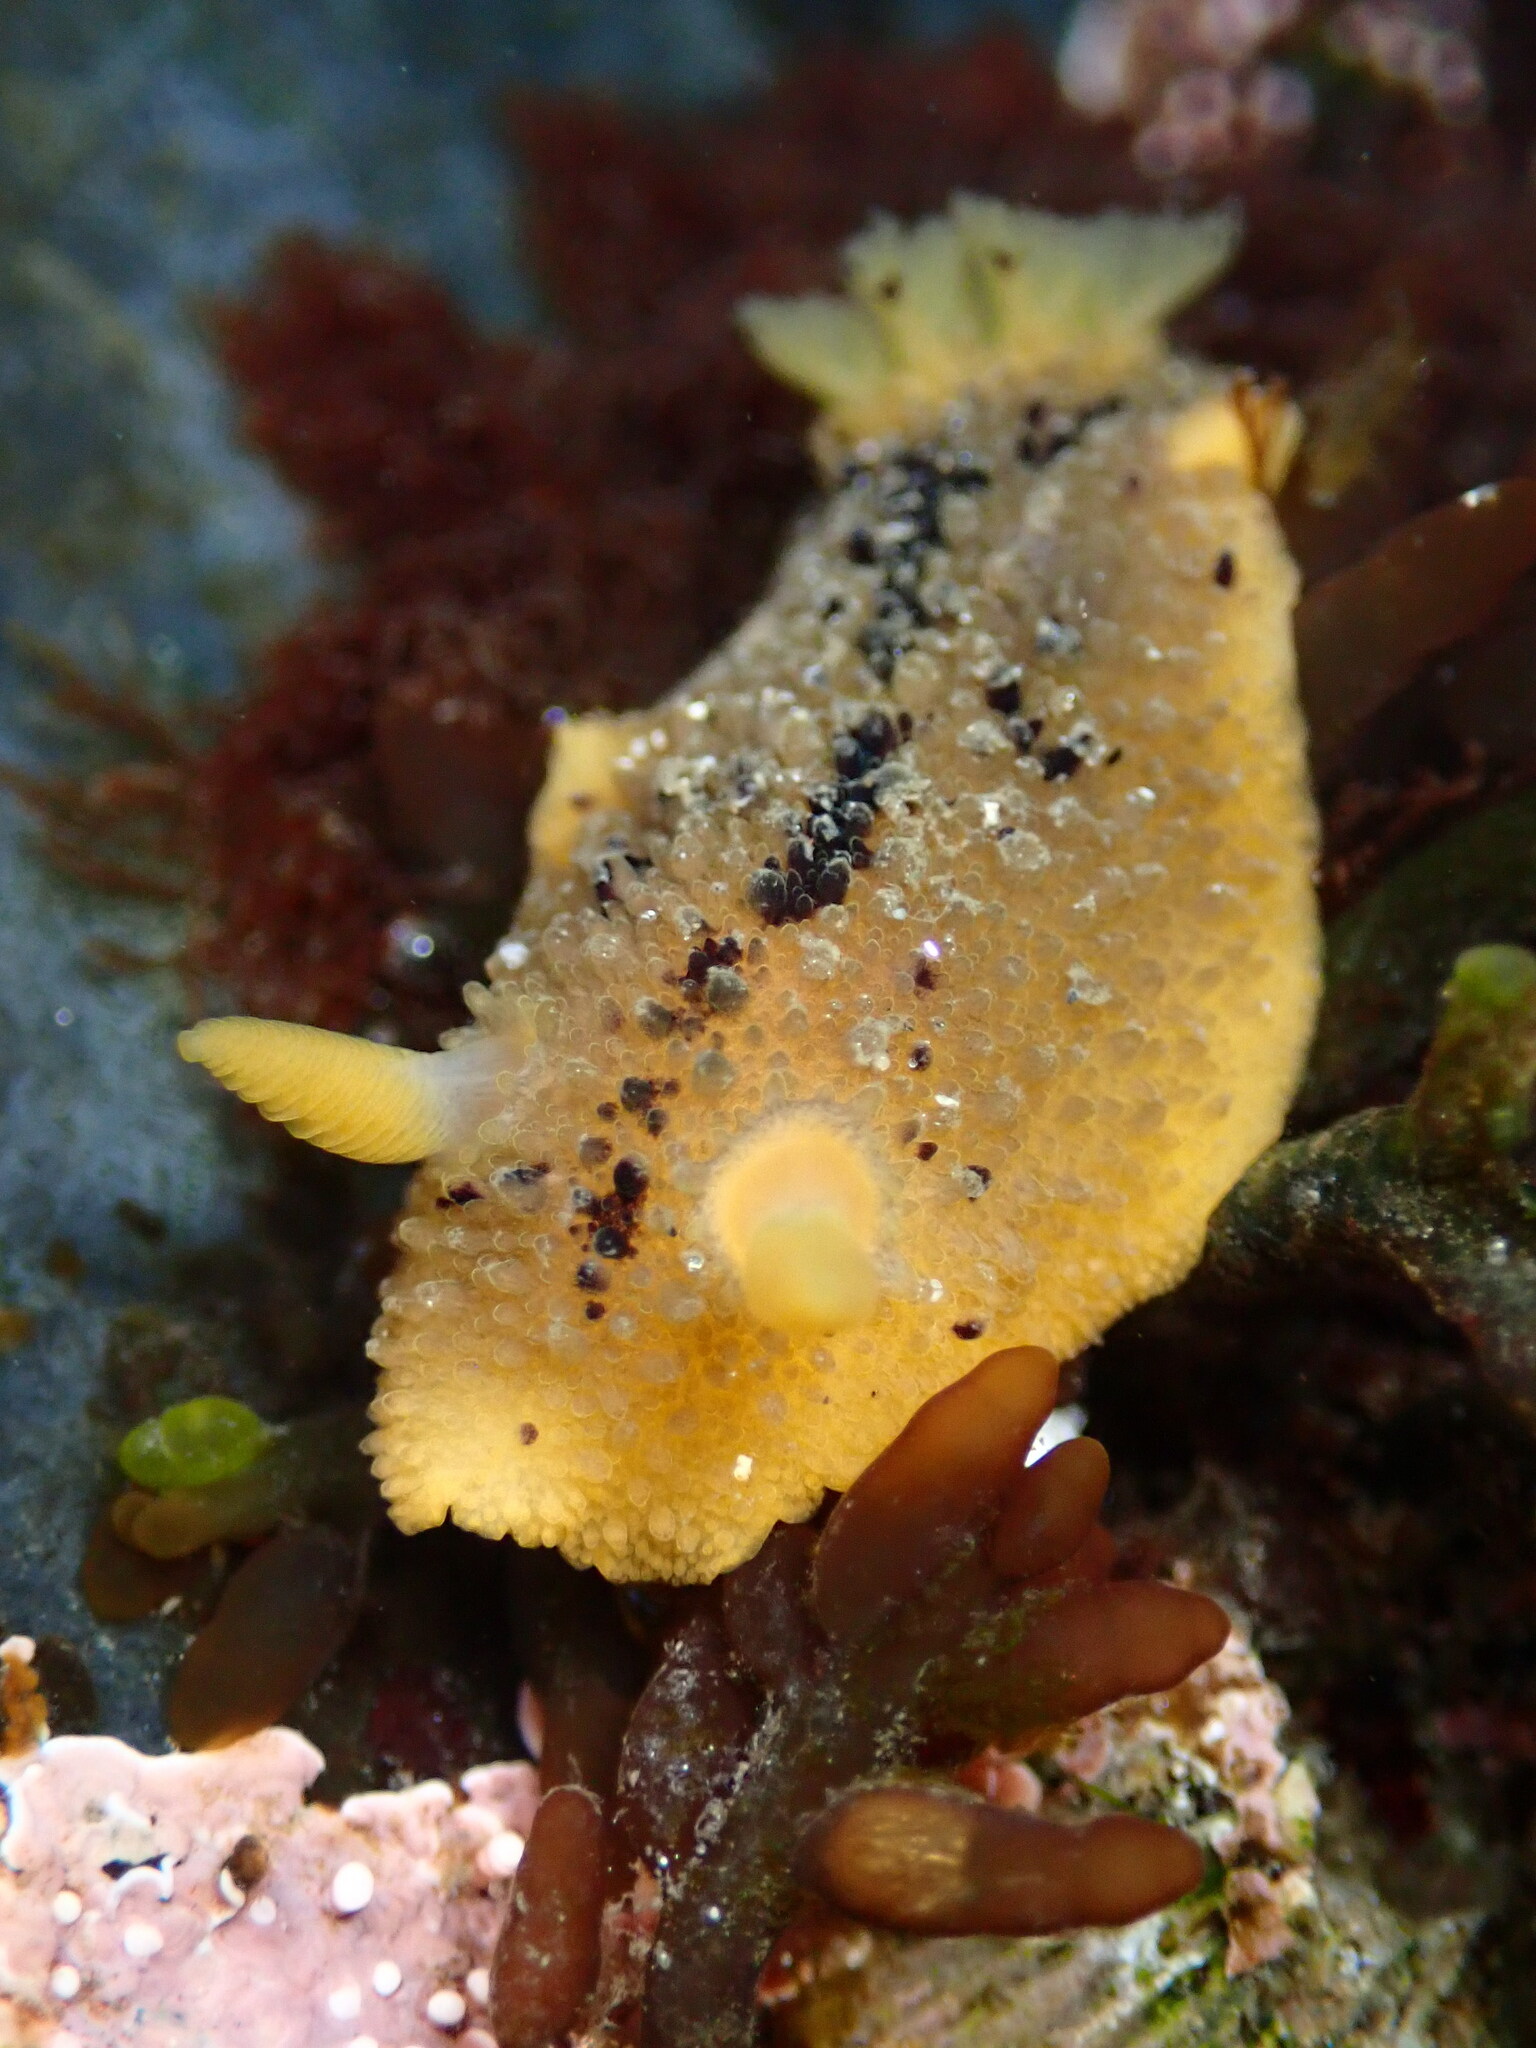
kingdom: Animalia
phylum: Mollusca
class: Gastropoda
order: Nudibranchia
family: Dorididae
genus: Doris
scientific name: Doris montereyensis
